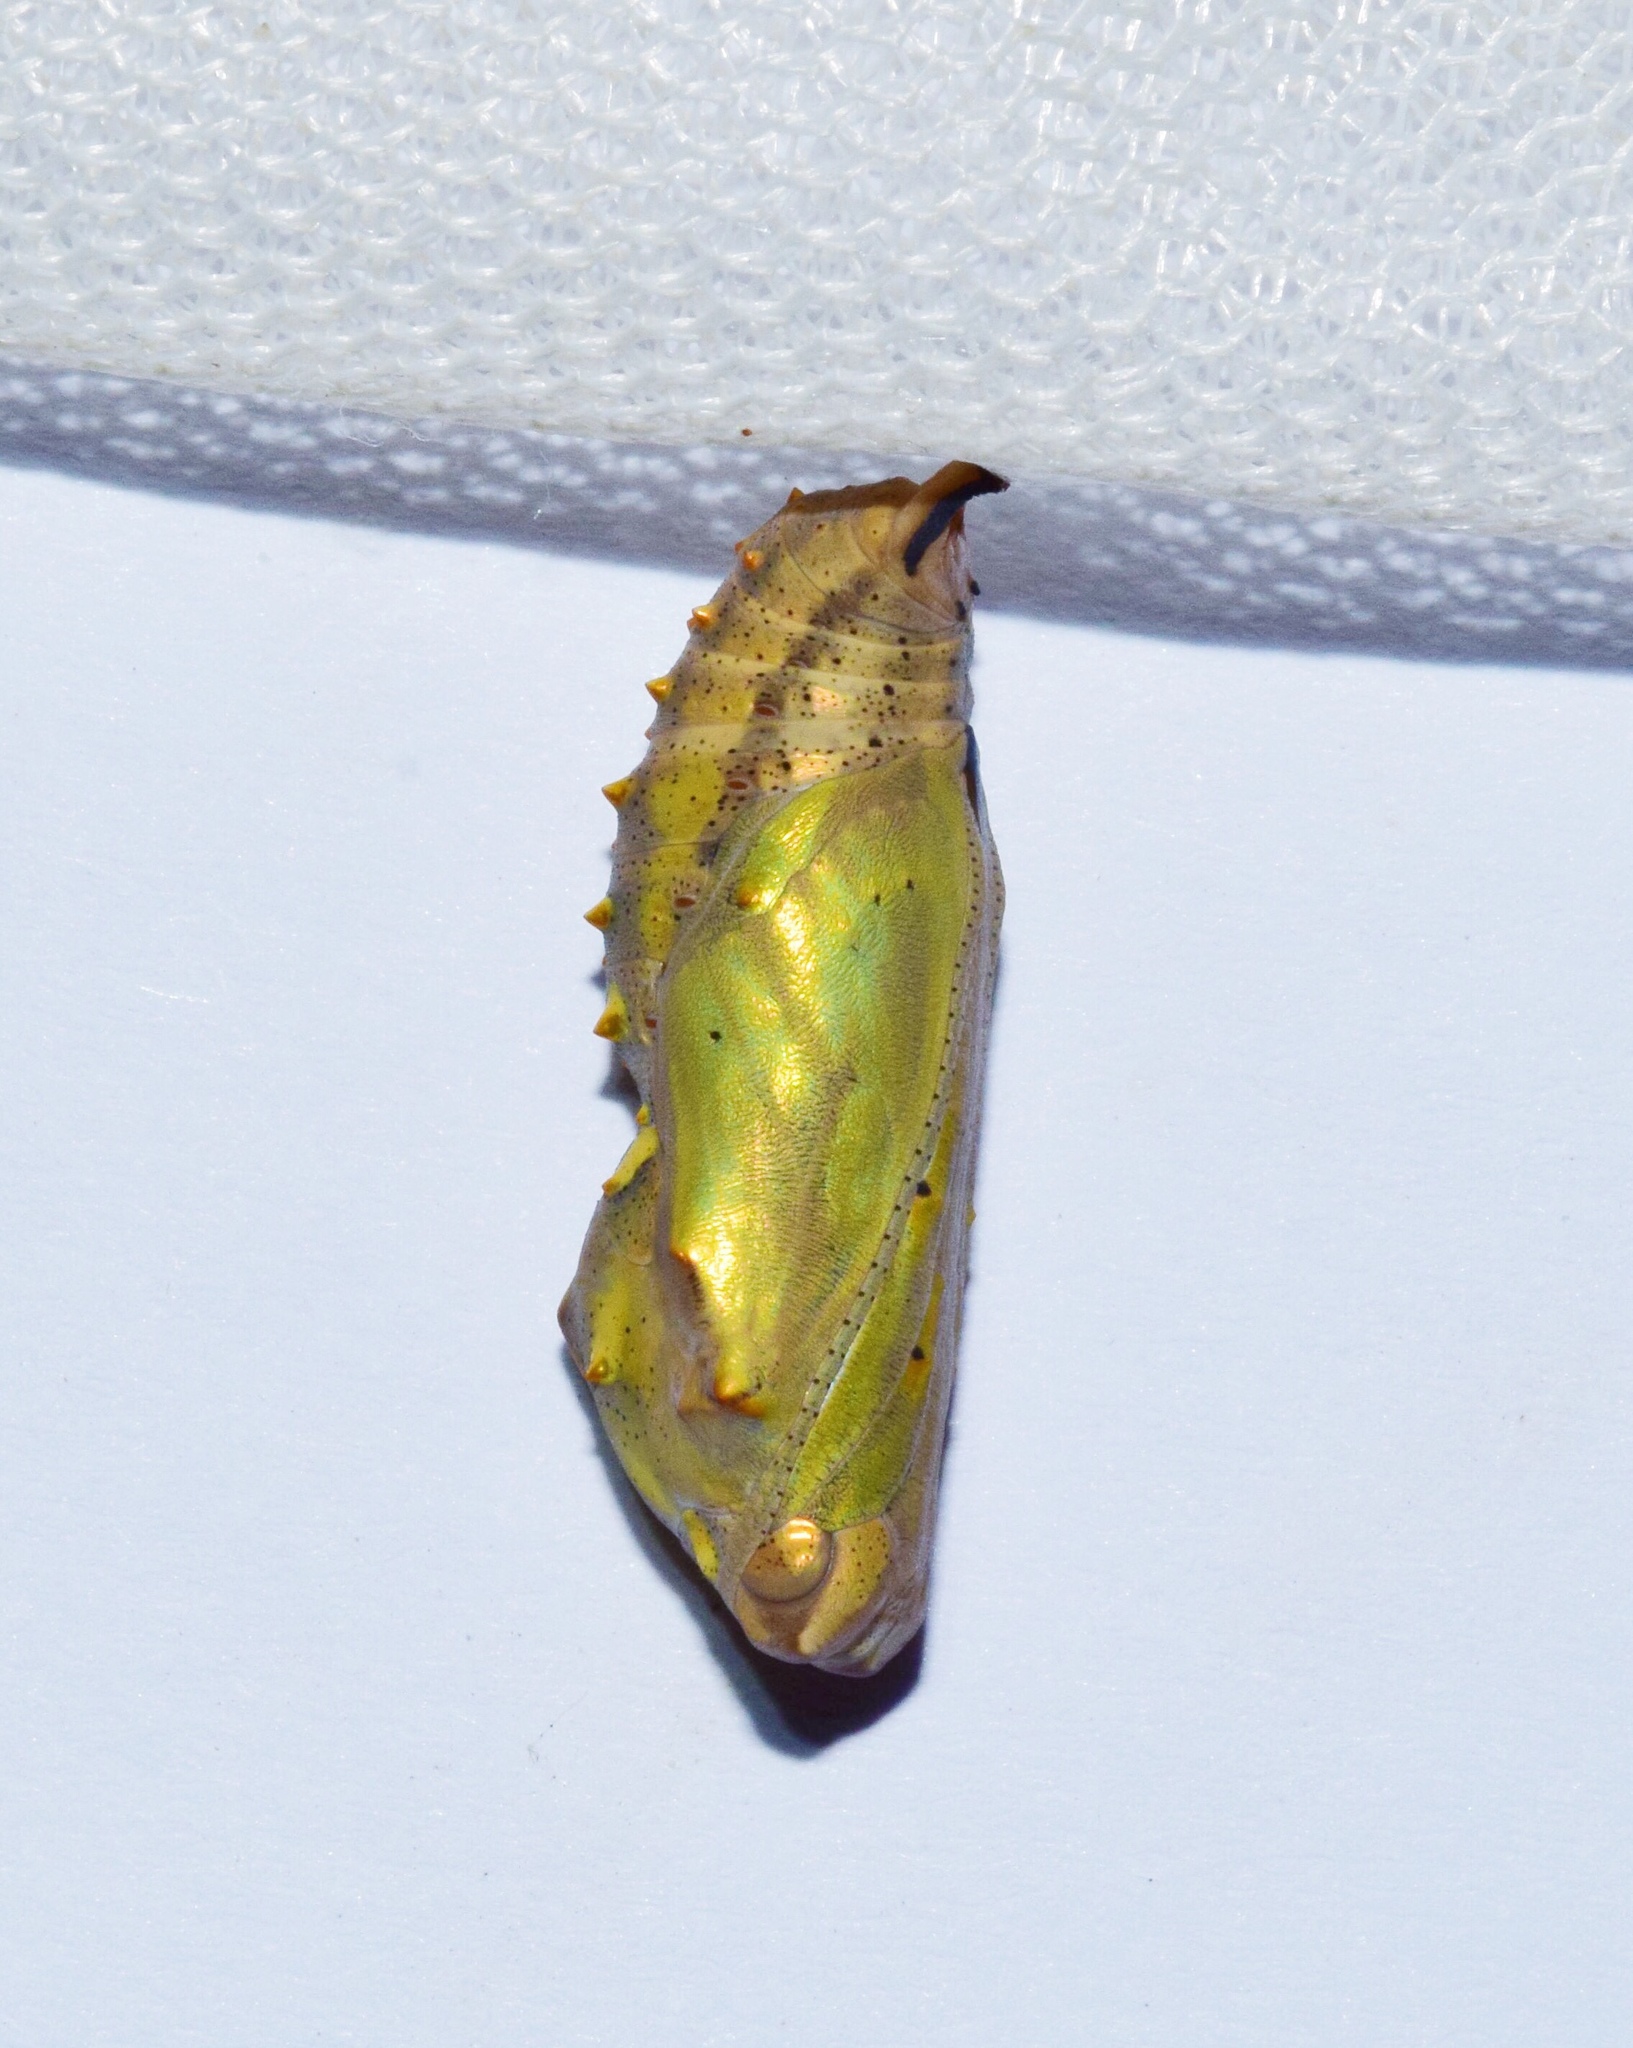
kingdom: Animalia
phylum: Arthropoda
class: Insecta
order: Lepidoptera
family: Nymphalidae
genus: Vanessa
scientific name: Vanessa cardui
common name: Painted lady
